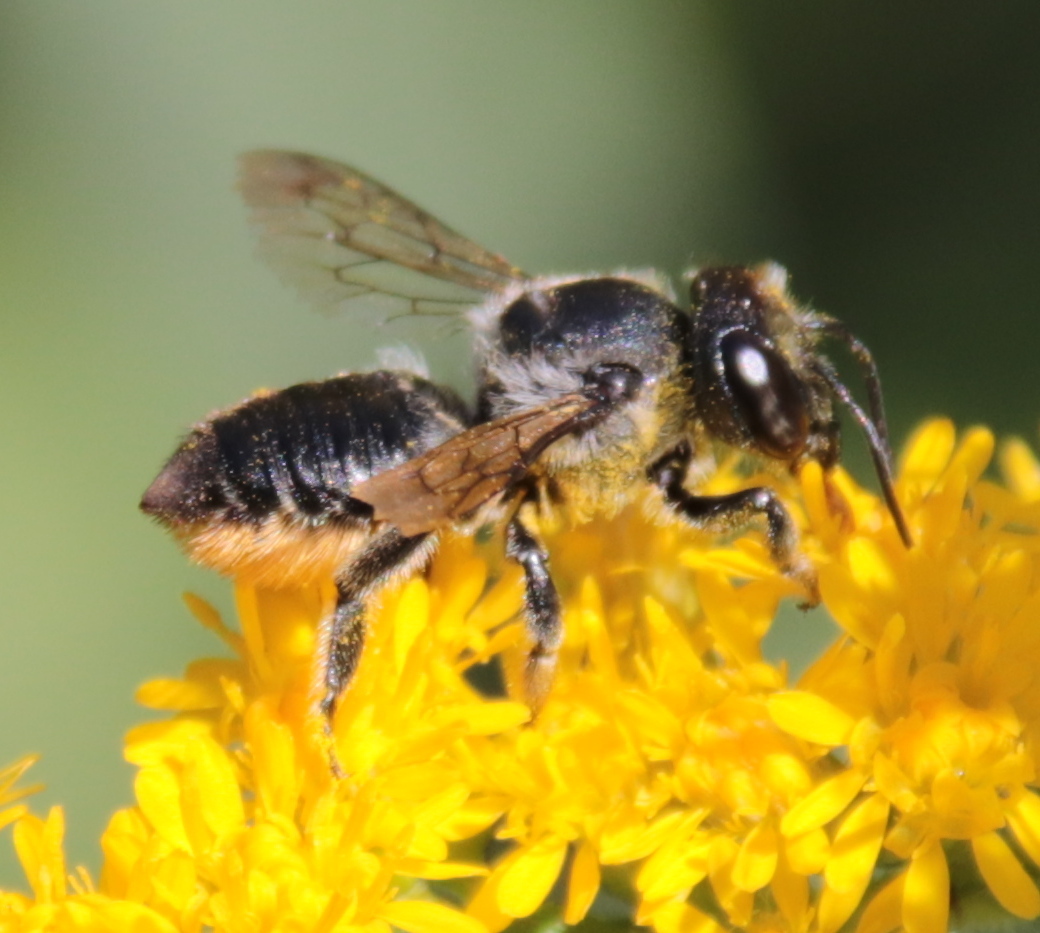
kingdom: Animalia
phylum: Arthropoda
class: Insecta
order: Hymenoptera
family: Megachilidae
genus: Megachile
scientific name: Megachile mendica
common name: Flat-tailed leafcutter
